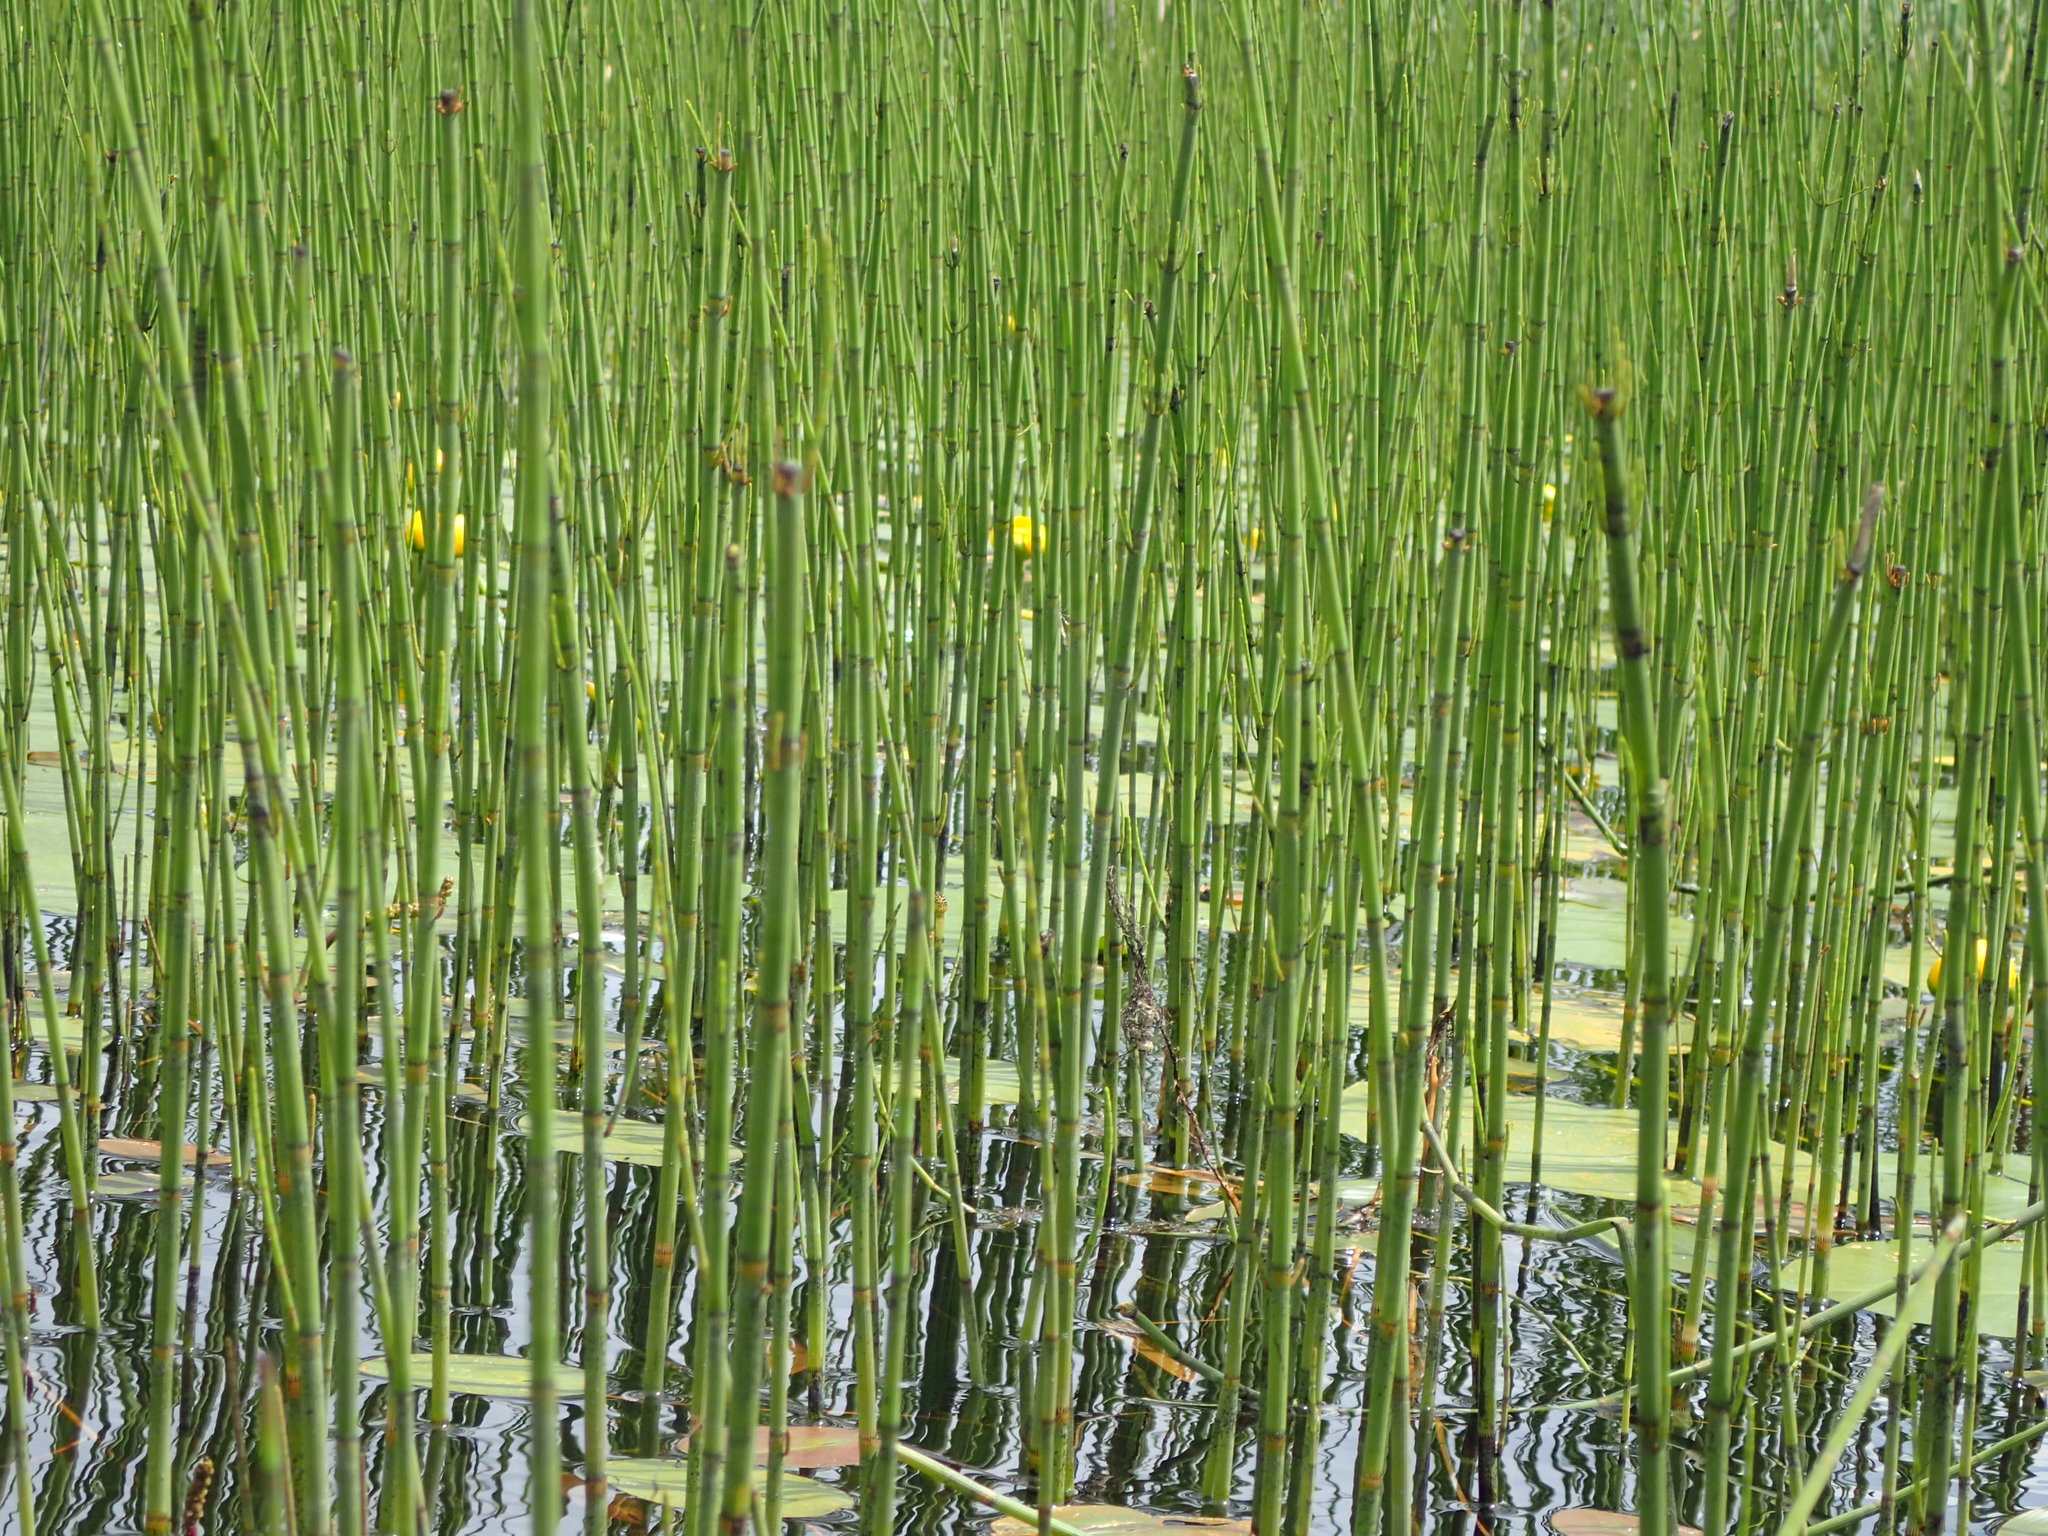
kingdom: Plantae
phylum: Tracheophyta
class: Polypodiopsida
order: Equisetales
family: Equisetaceae
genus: Equisetum
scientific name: Equisetum fluviatile
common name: Water horsetail
